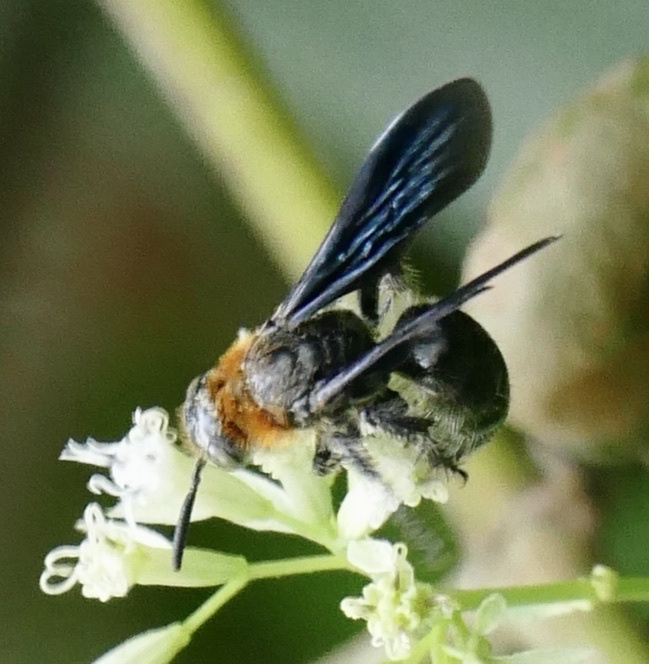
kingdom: Animalia
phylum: Arthropoda
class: Insecta
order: Hymenoptera
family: Scoliidae
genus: Campsomeriella
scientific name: Campsomeriella caelebs
